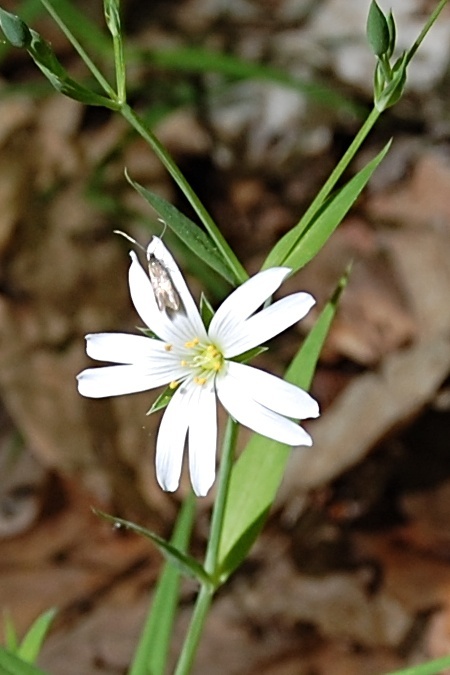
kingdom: Plantae
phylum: Tracheophyta
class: Magnoliopsida
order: Caryophyllales
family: Caryophyllaceae
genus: Rabelera
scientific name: Rabelera holostea
